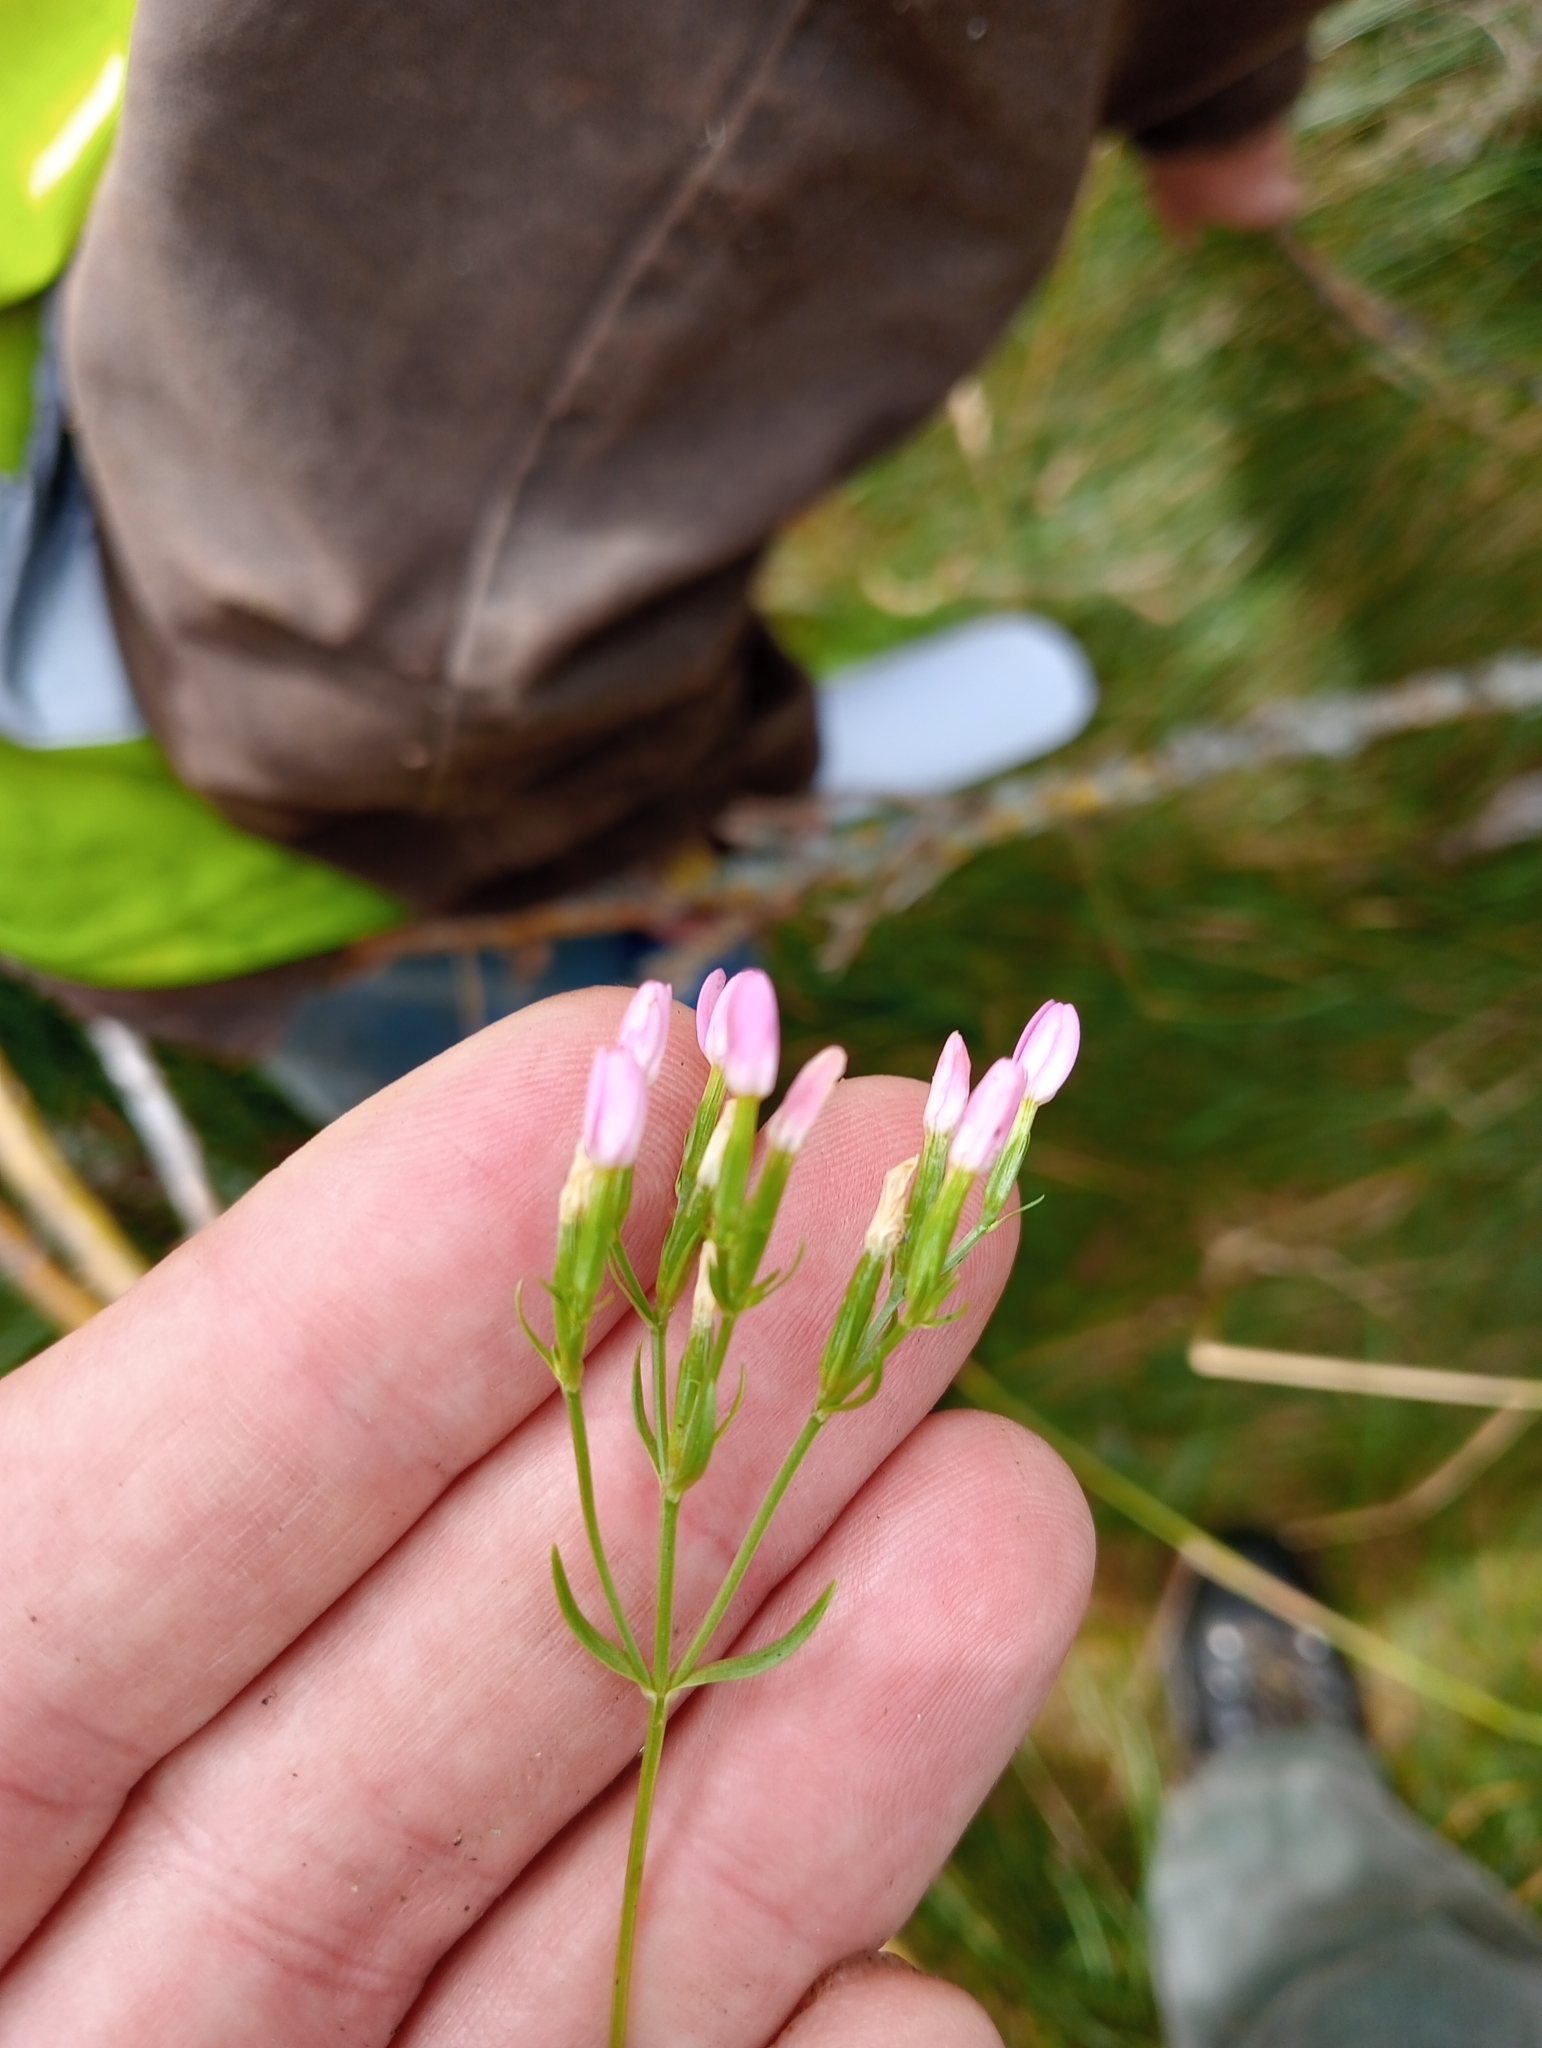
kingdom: Plantae
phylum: Tracheophyta
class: Magnoliopsida
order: Gentianales
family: Gentianaceae
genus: Centaurium
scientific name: Centaurium erythraea
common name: Common centaury
